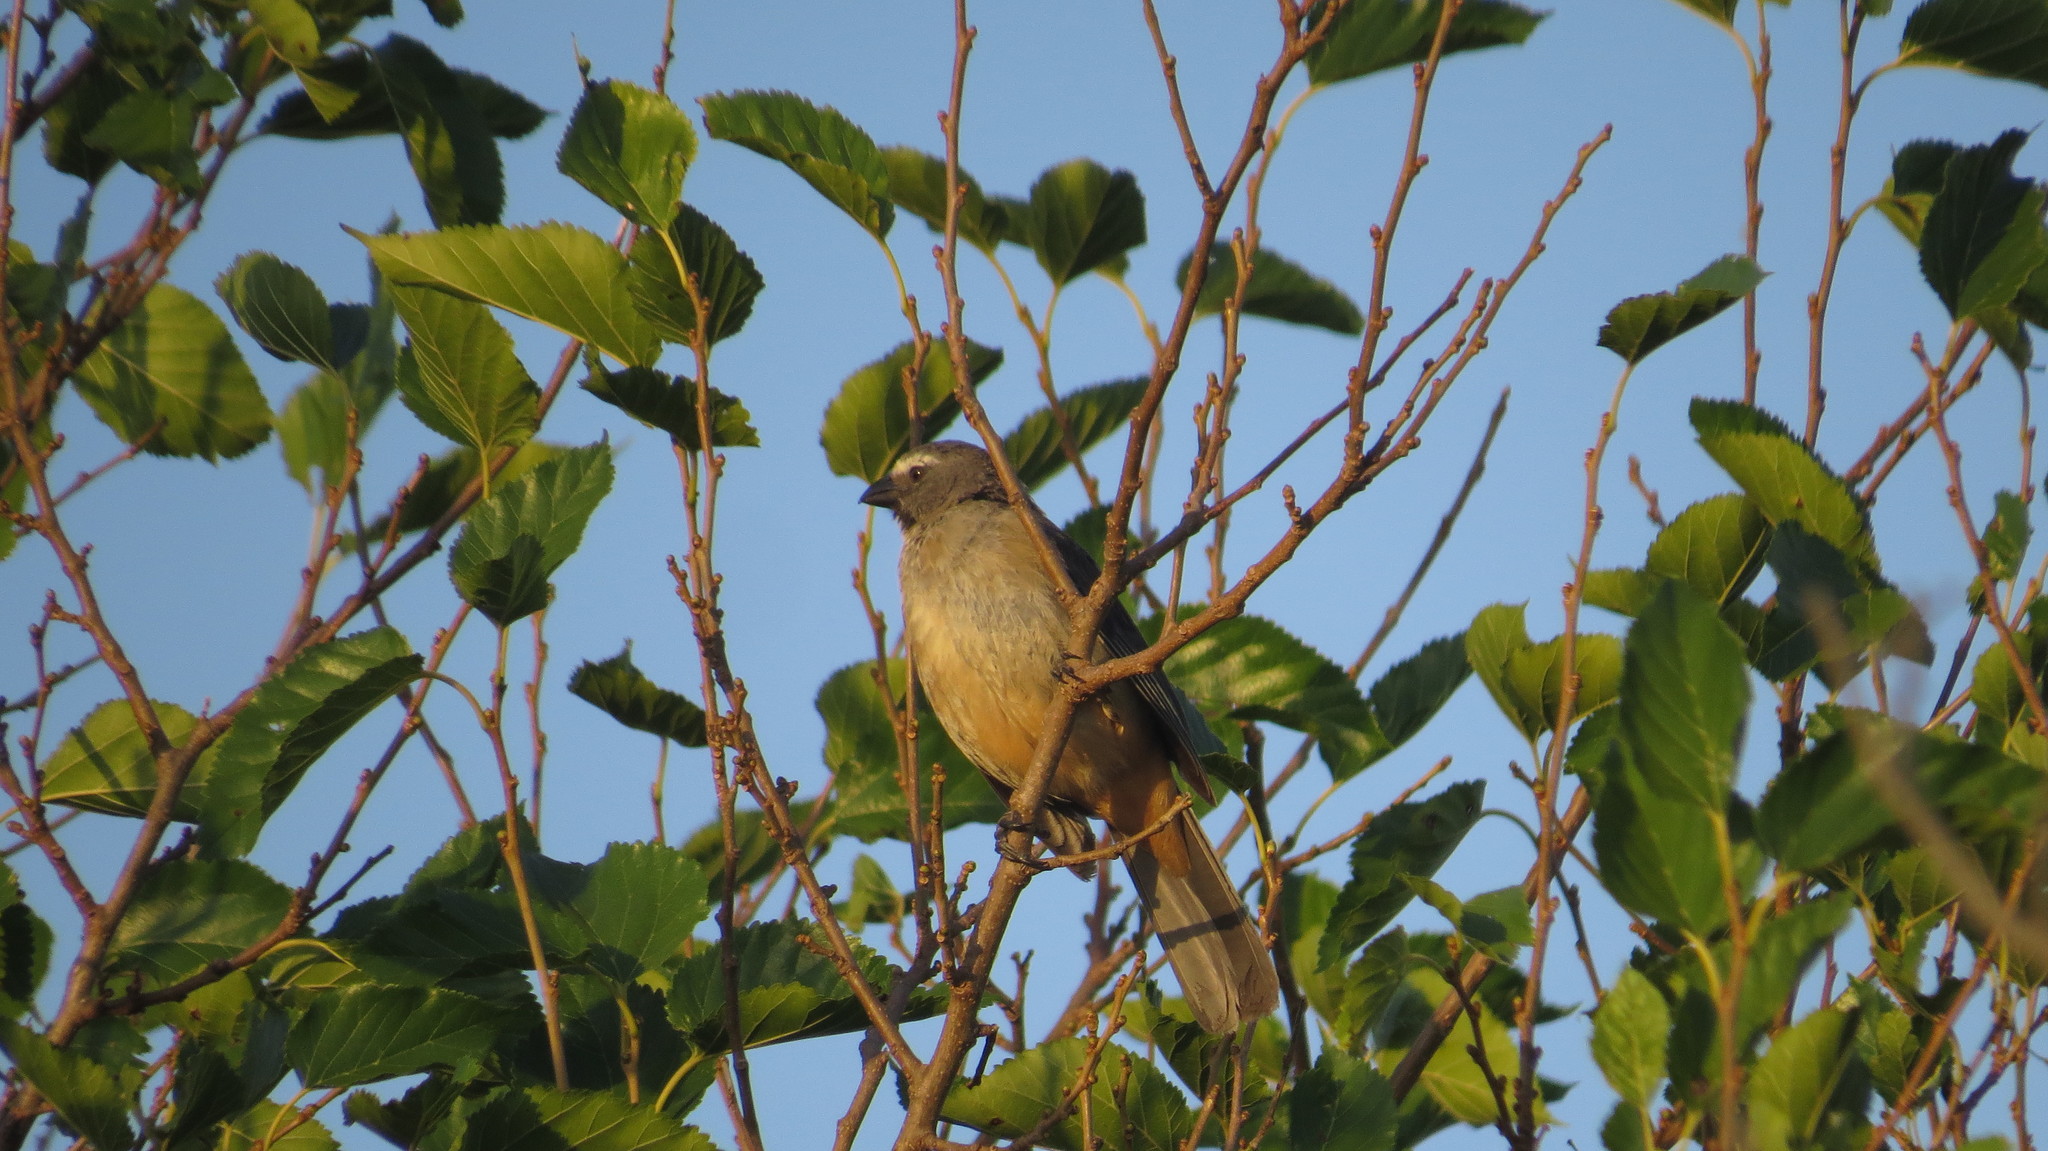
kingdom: Animalia
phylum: Chordata
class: Aves
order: Passeriformes
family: Thraupidae
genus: Saltator
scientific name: Saltator coerulescens
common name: Grayish saltator
